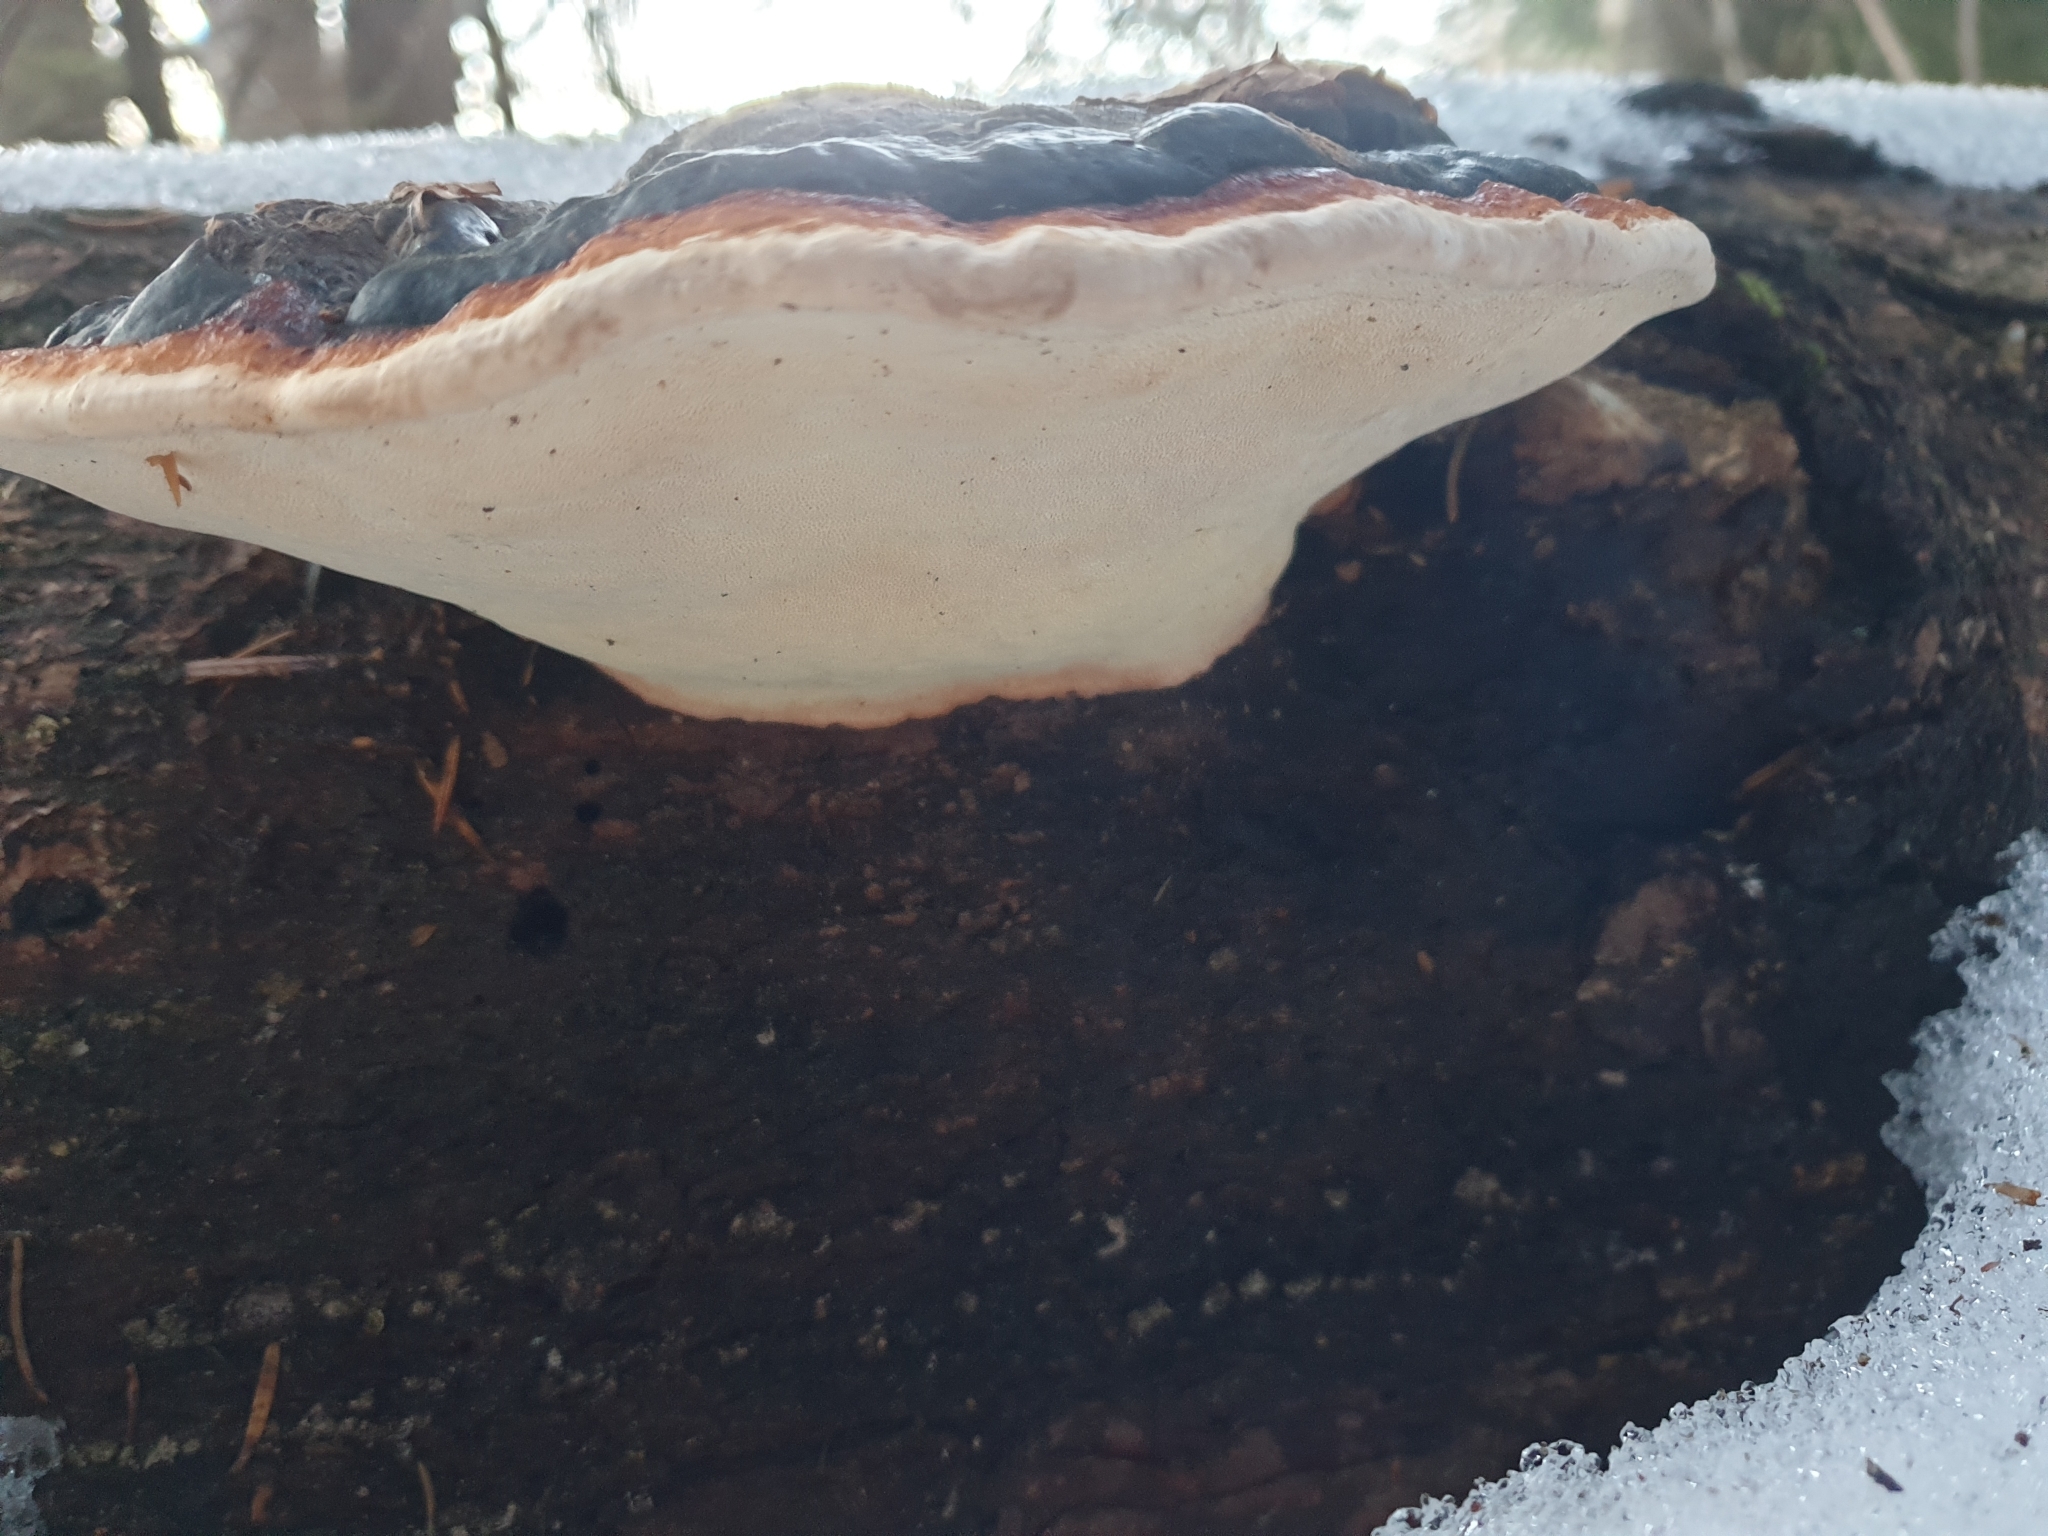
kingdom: Fungi
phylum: Basidiomycota
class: Agaricomycetes
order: Polyporales
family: Fomitopsidaceae
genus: Fomitopsis
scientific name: Fomitopsis pinicola
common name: Red-belted bracket
